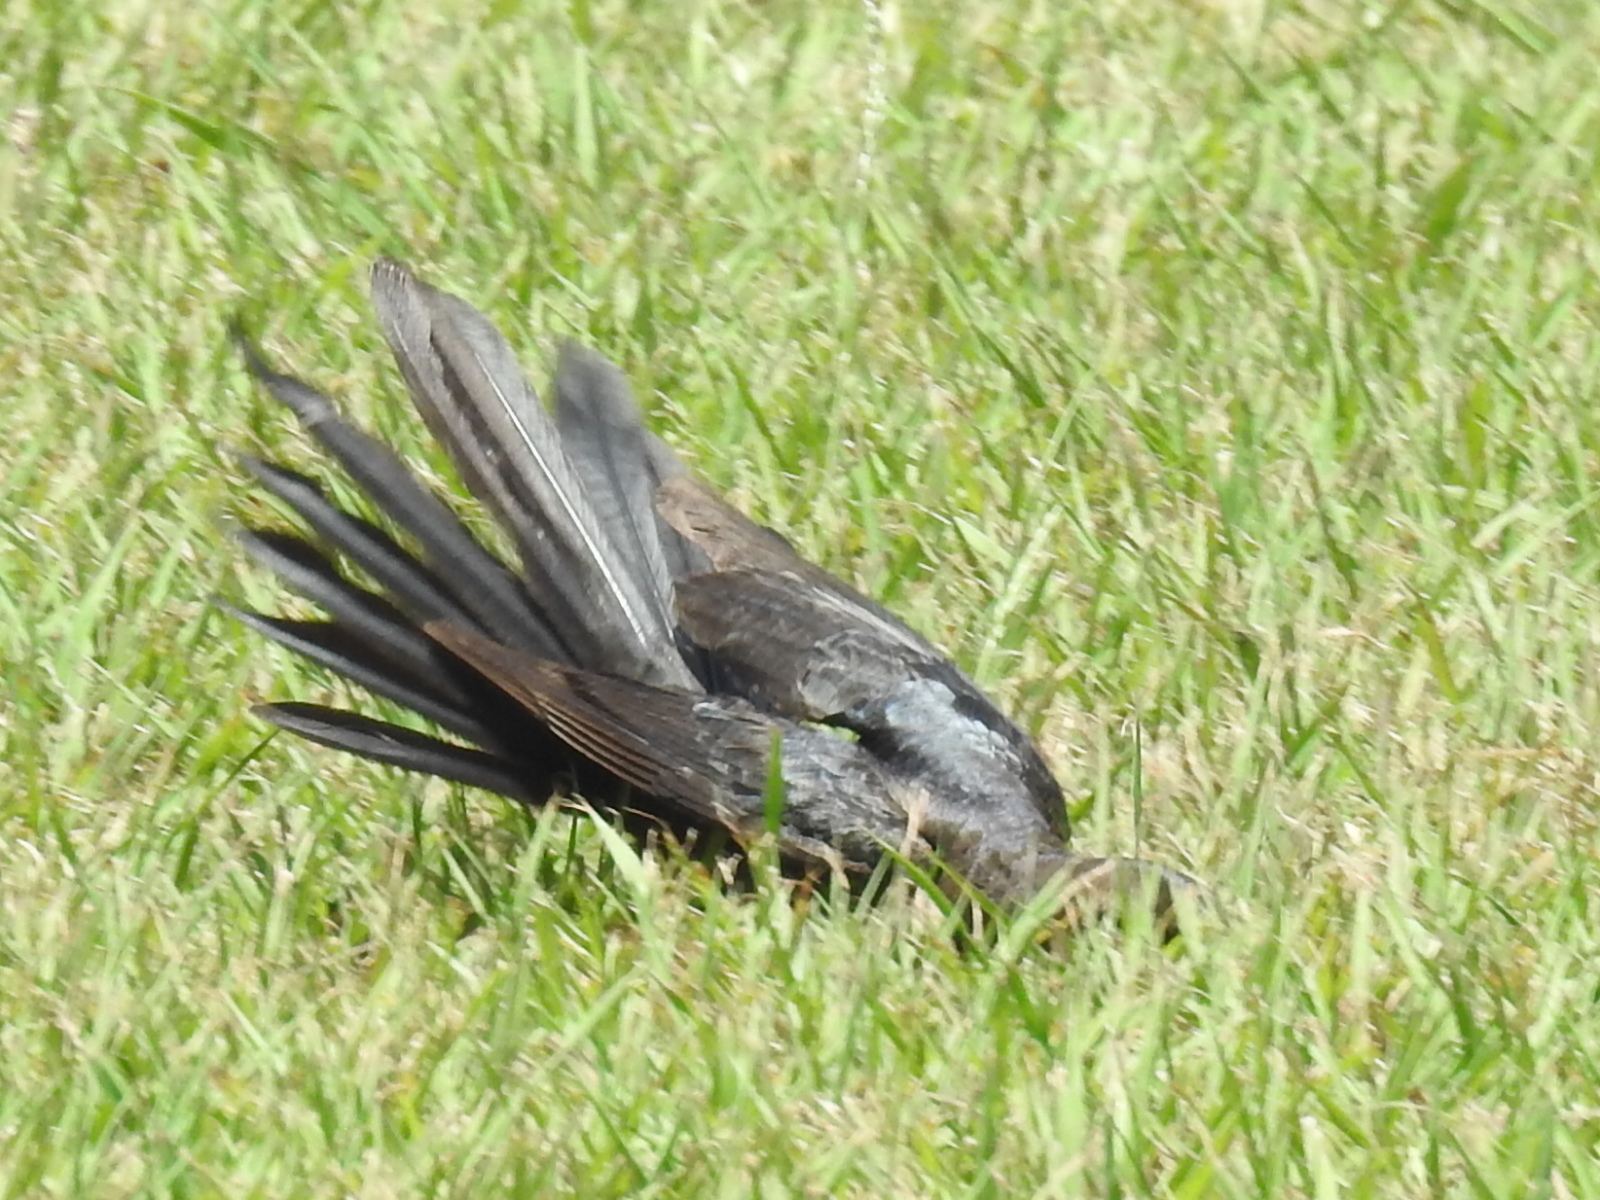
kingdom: Animalia
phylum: Chordata
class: Aves
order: Passeriformes
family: Icteridae
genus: Quiscalus
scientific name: Quiscalus mexicanus
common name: Great-tailed grackle
